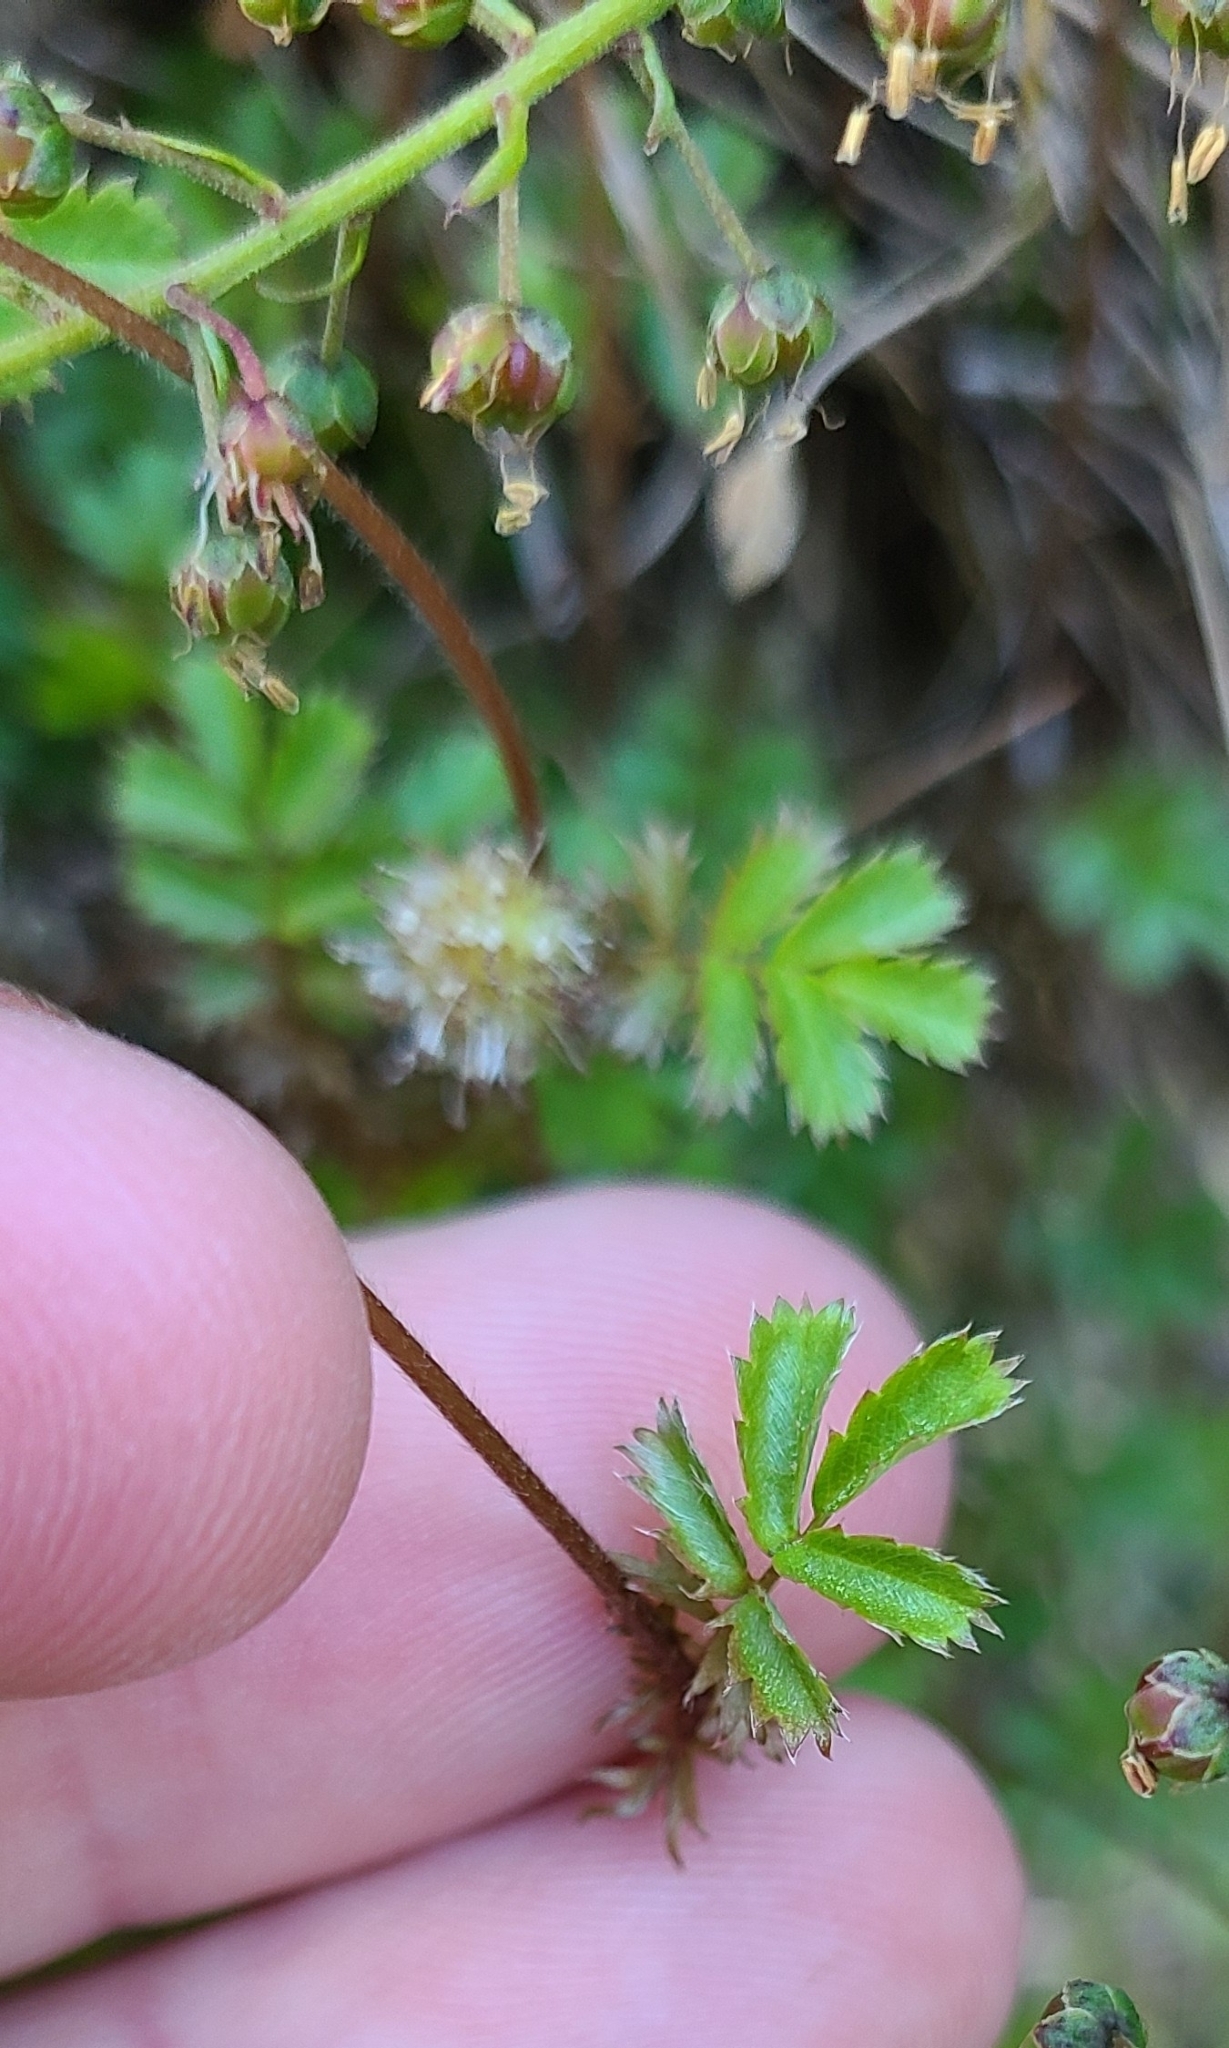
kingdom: Plantae
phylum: Tracheophyta
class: Magnoliopsida
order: Rosales
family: Rosaceae
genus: Acaena
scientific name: Acaena anserinifolia
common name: Bronze pirri-pirri-bur
